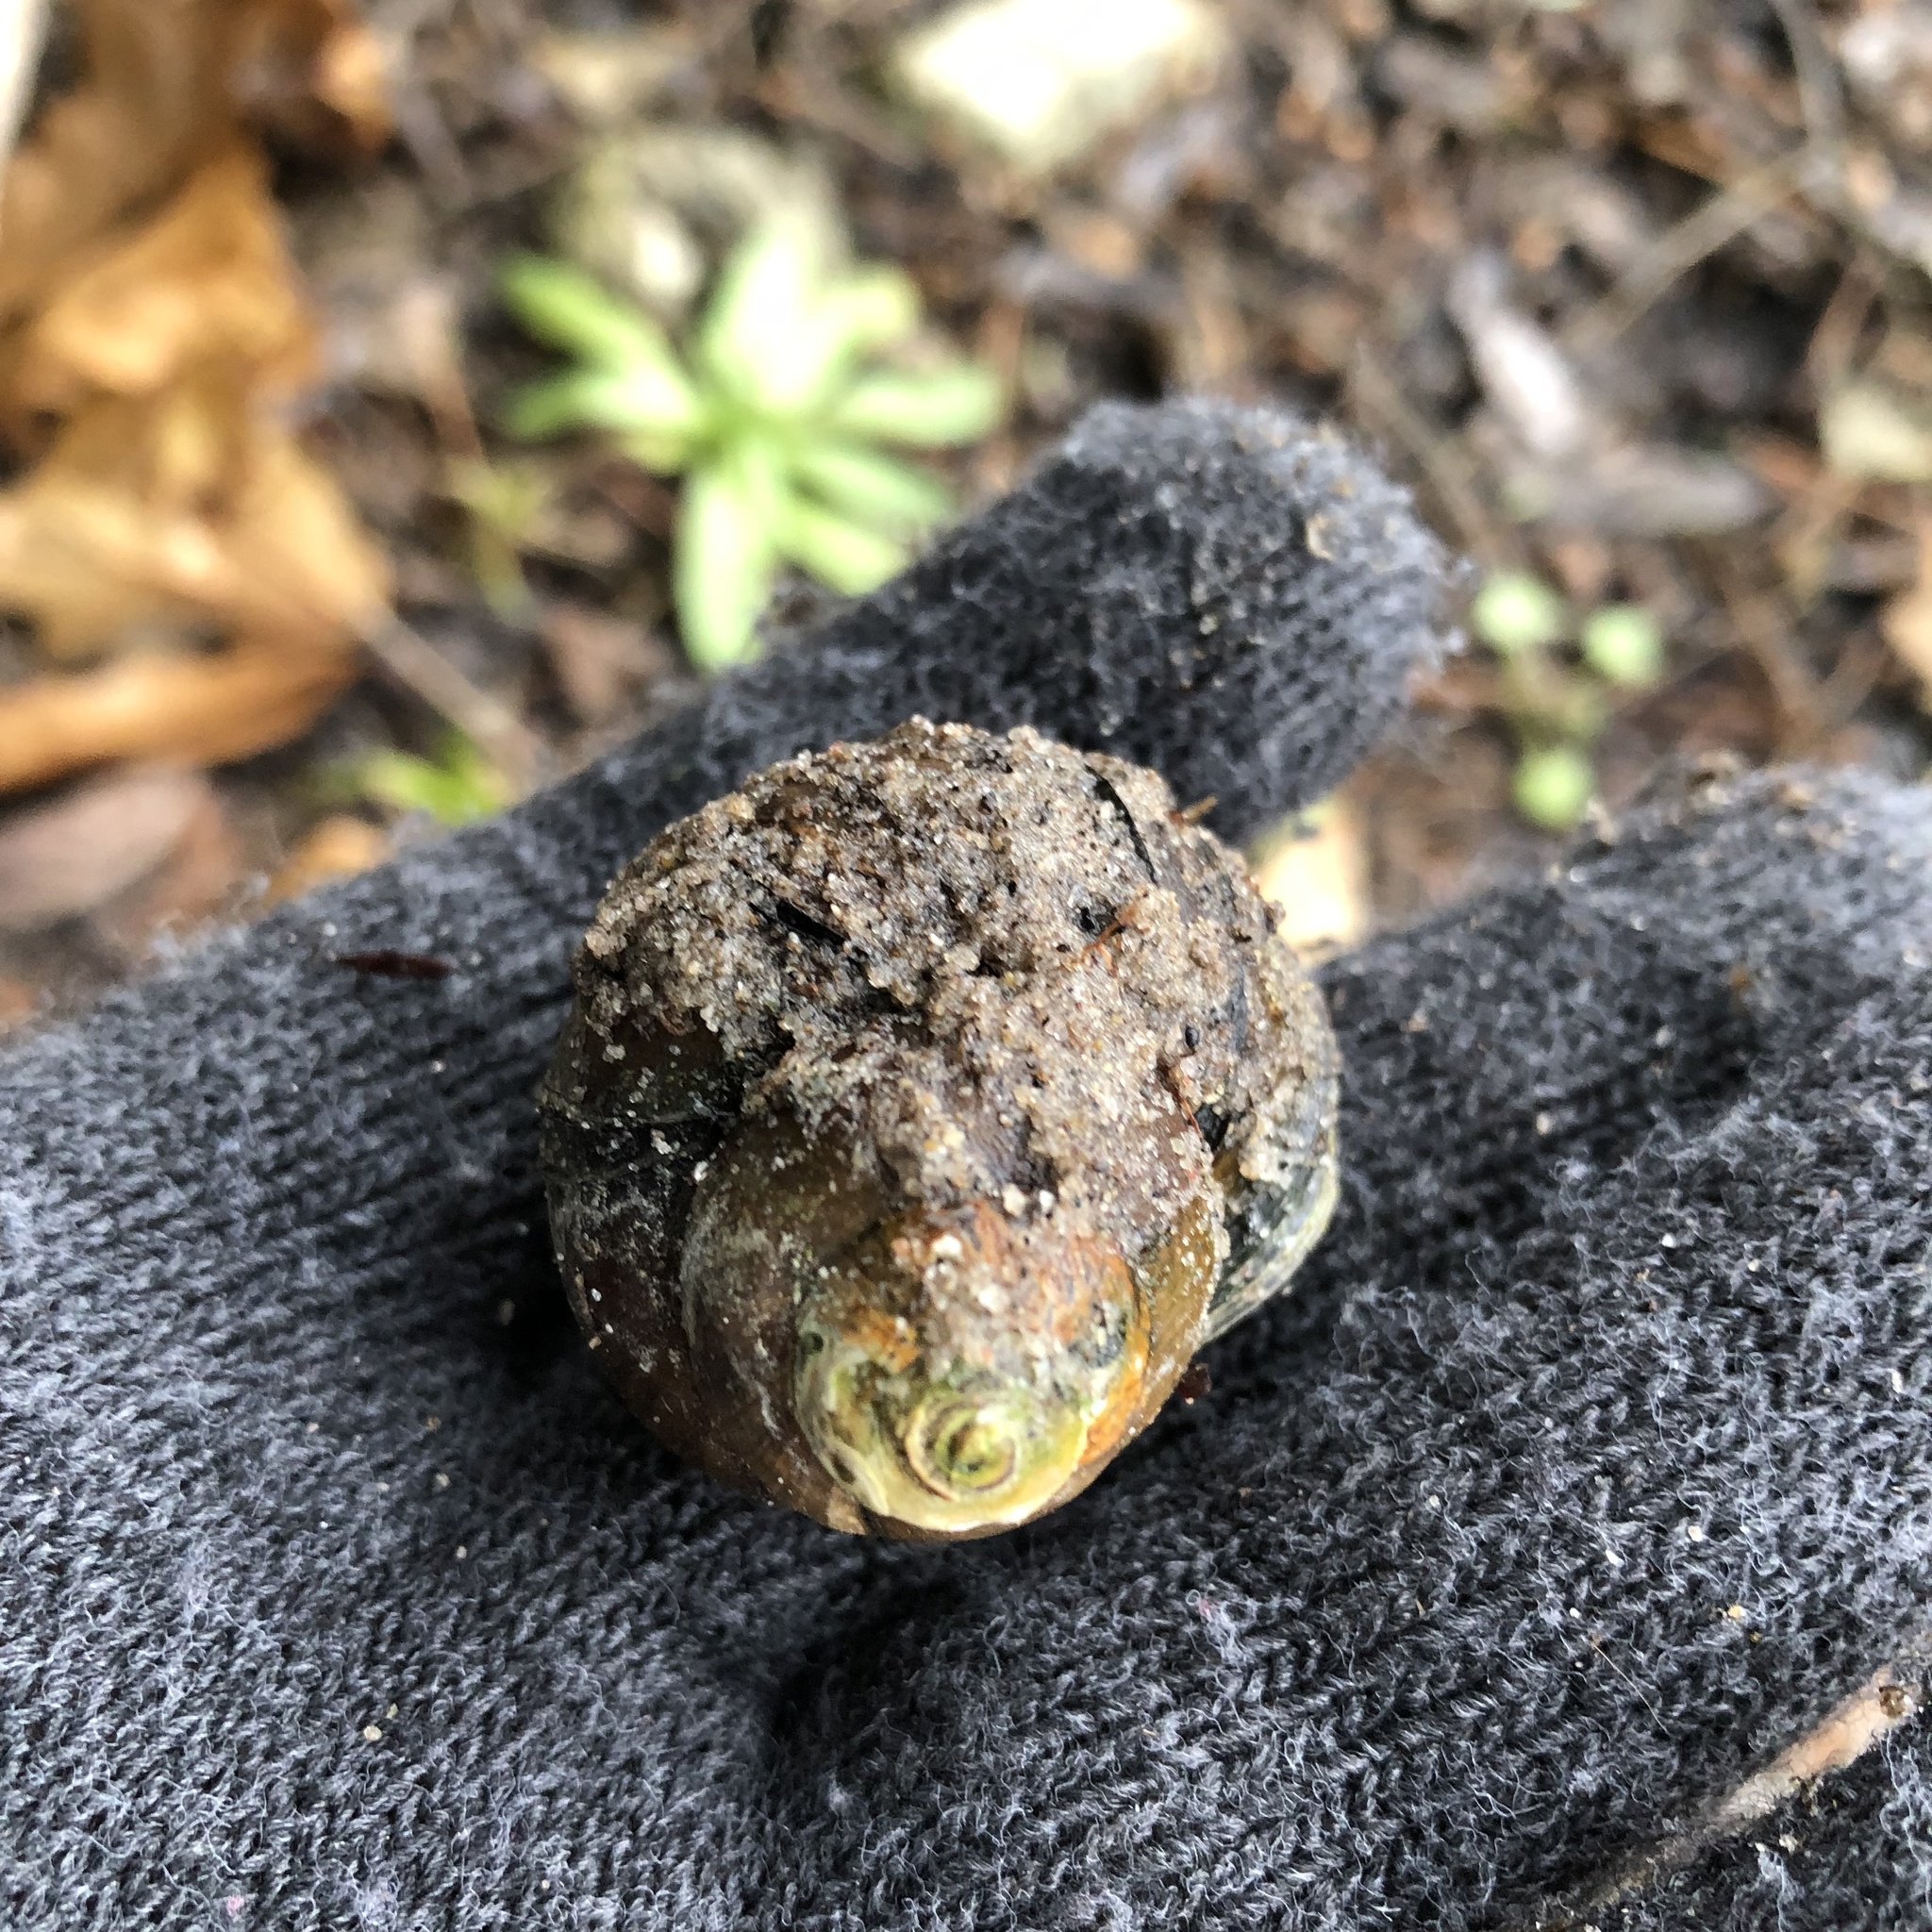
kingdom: Animalia
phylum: Mollusca
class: Gastropoda
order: Architaenioglossa
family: Viviparidae
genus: Cipangopaludina
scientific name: Cipangopaludina chinensis
